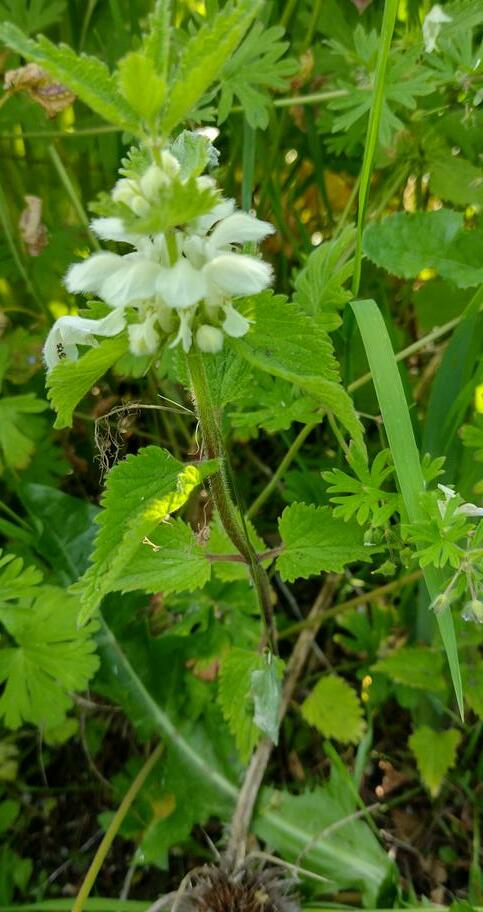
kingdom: Plantae
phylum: Tracheophyta
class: Magnoliopsida
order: Lamiales
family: Lamiaceae
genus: Lamium
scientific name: Lamium album
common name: White dead-nettle
